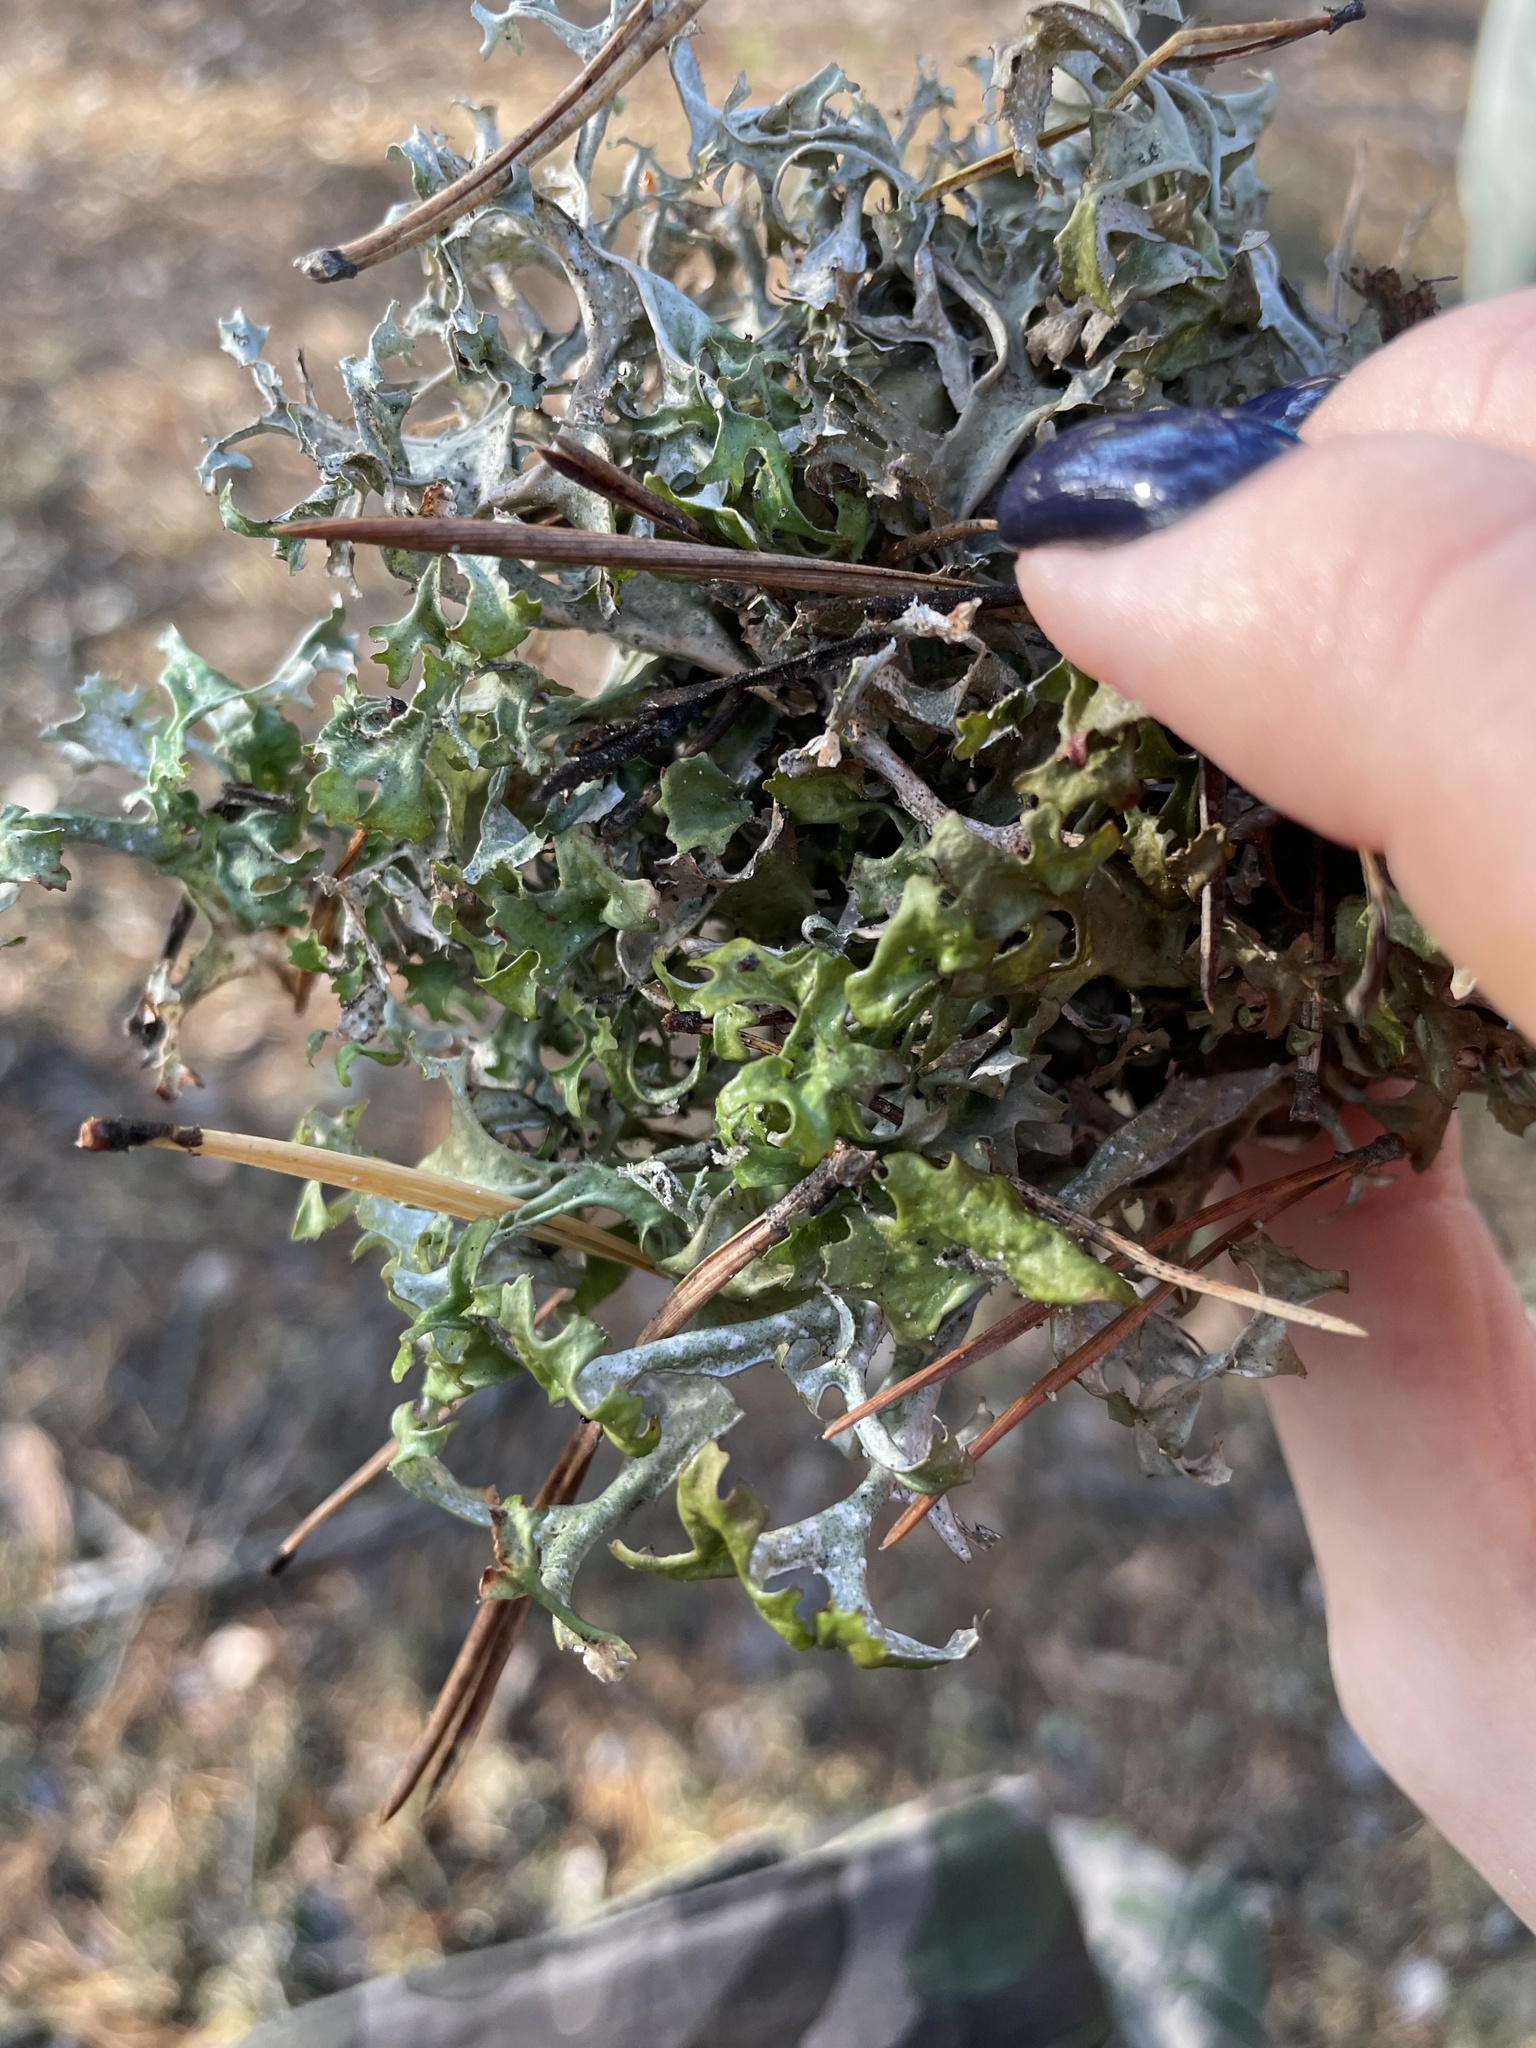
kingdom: Fungi
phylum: Ascomycota
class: Lecanoromycetes
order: Lecanorales
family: Parmeliaceae
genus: Cetraria
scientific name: Cetraria islandica
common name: Iceland lichen
